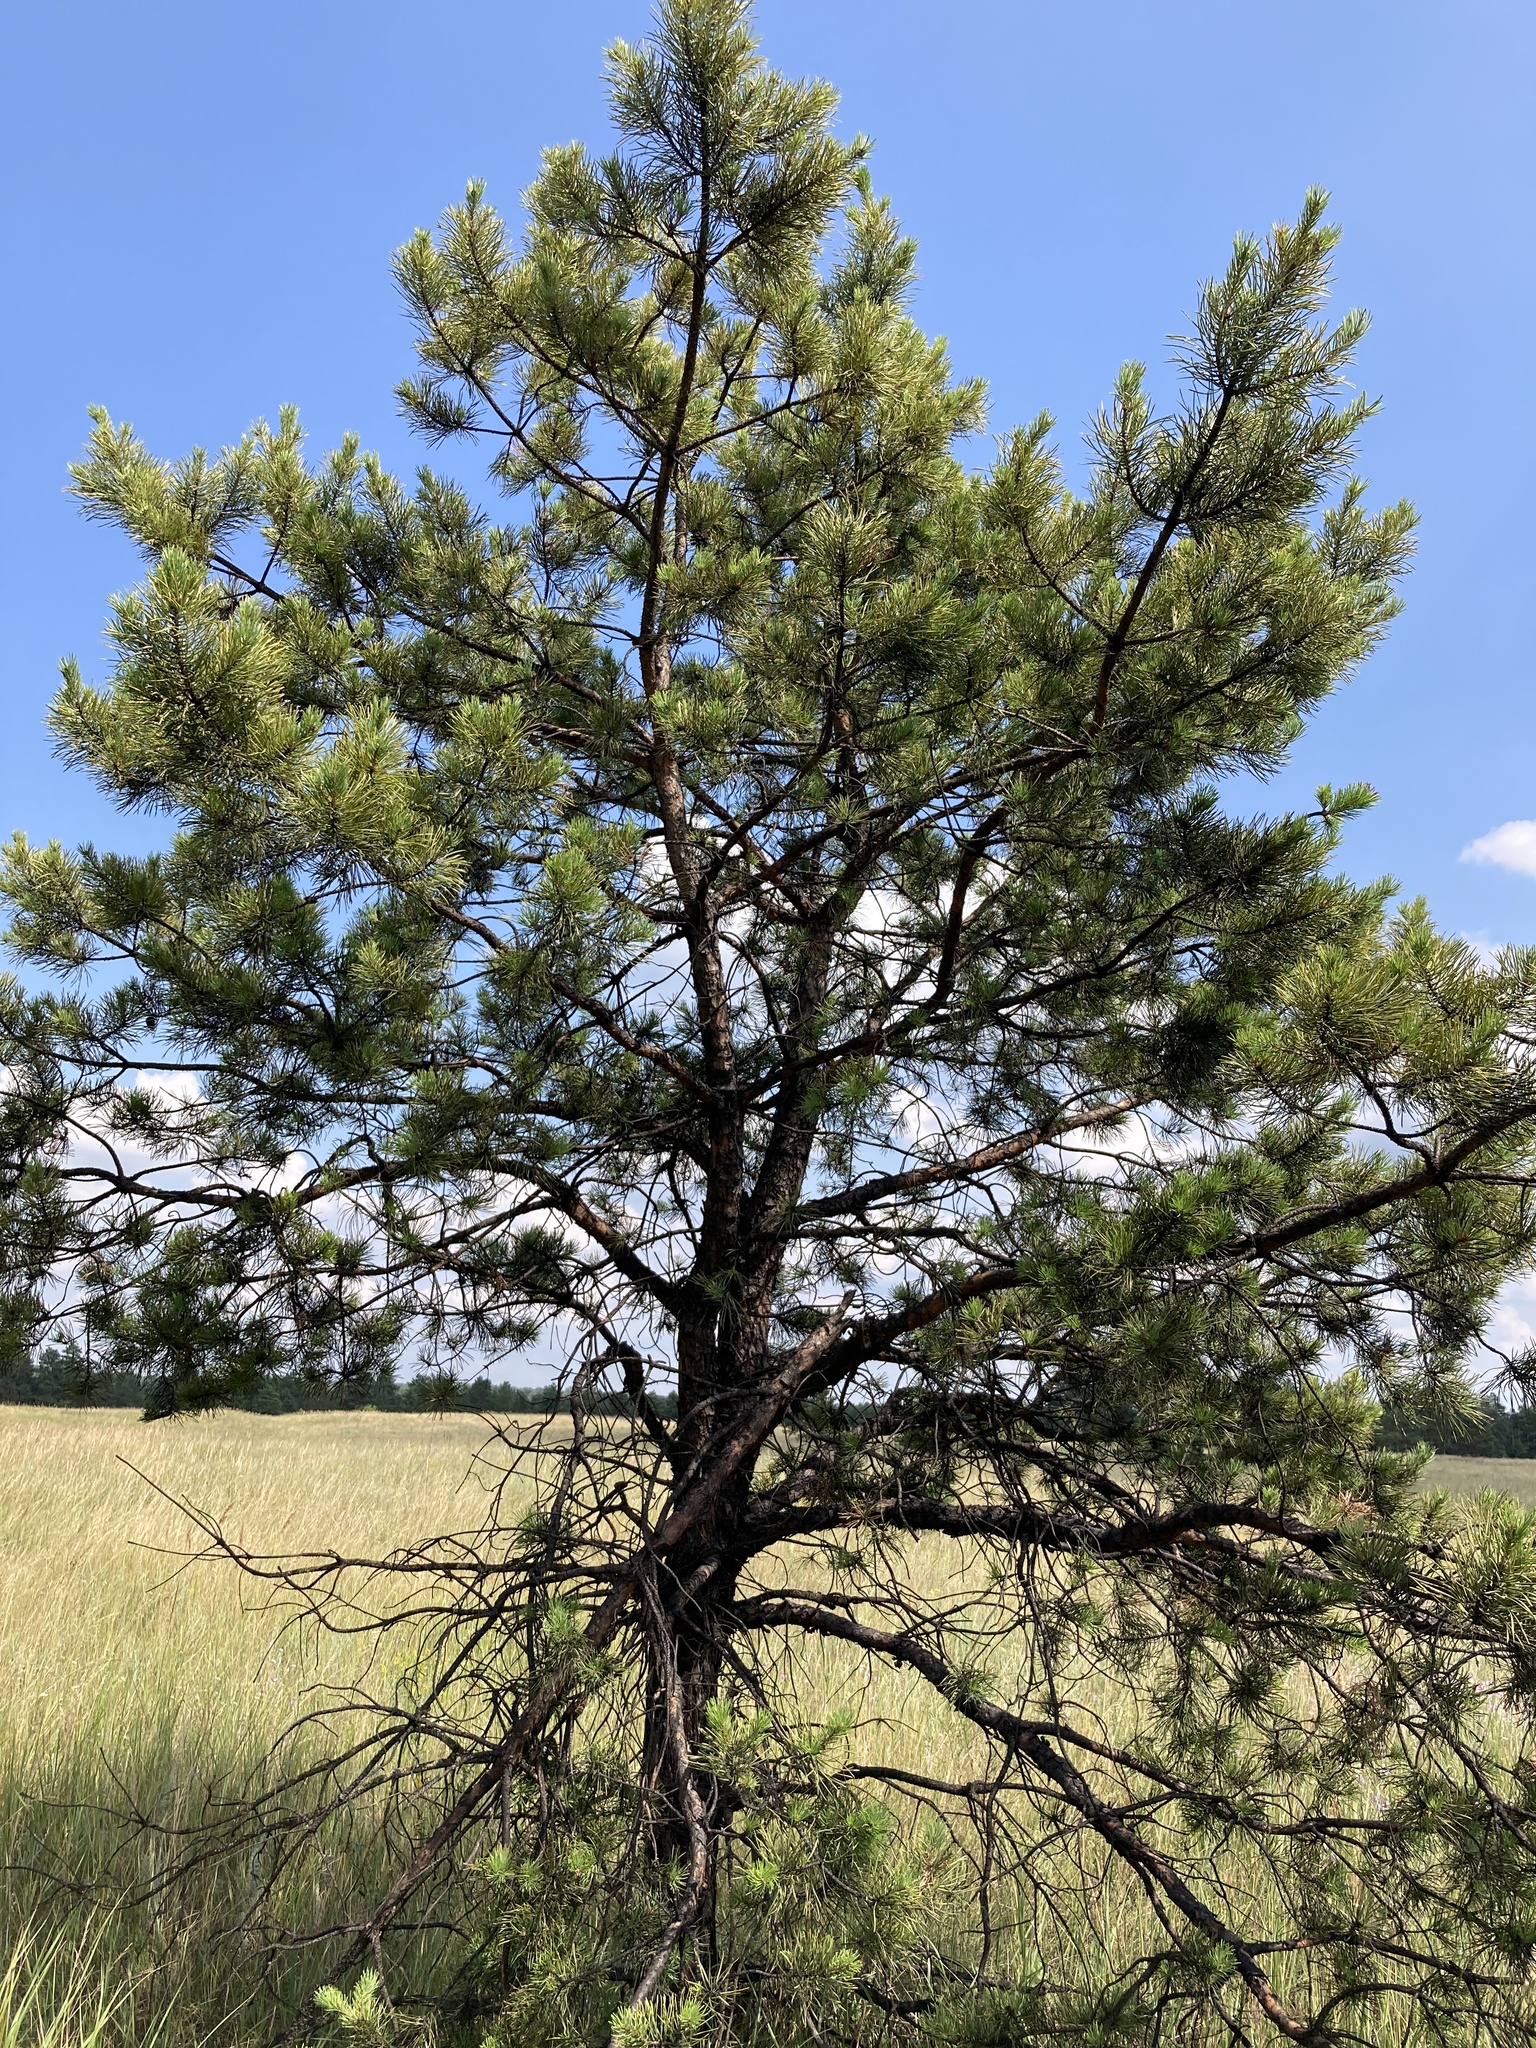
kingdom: Plantae
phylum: Tracheophyta
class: Pinopsida
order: Pinales
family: Pinaceae
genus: Pinus
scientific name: Pinus sylvestris
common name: Scots pine
